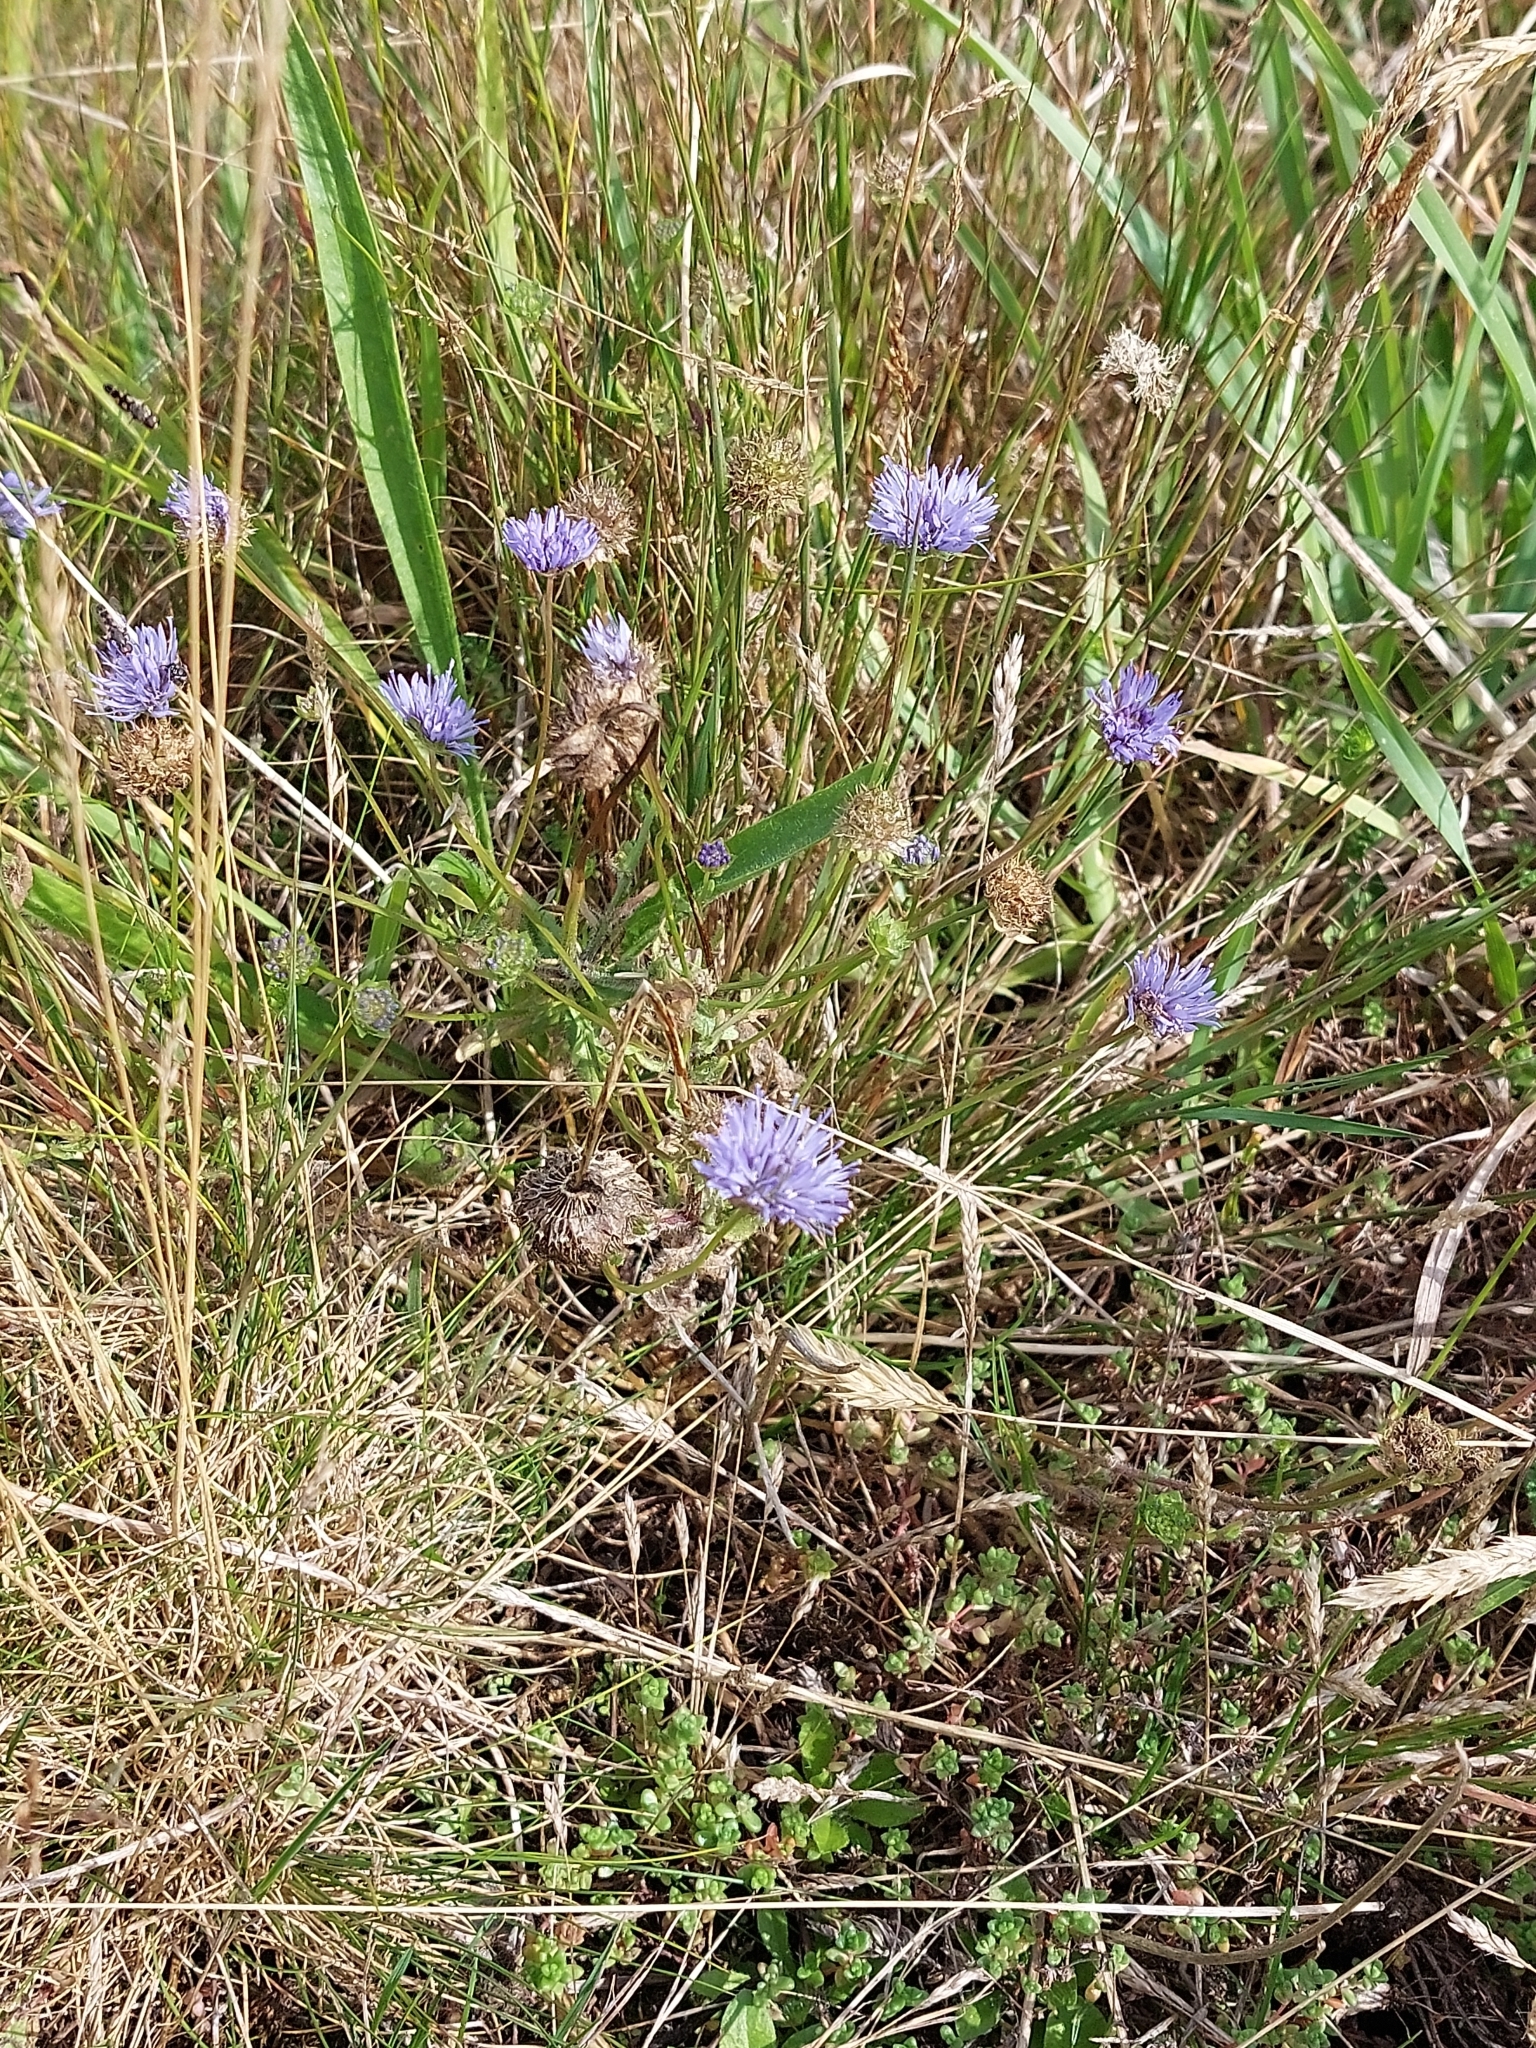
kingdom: Plantae
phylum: Tracheophyta
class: Magnoliopsida
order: Asterales
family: Campanulaceae
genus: Jasione
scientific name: Jasione montana
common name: Sheep's-bit
